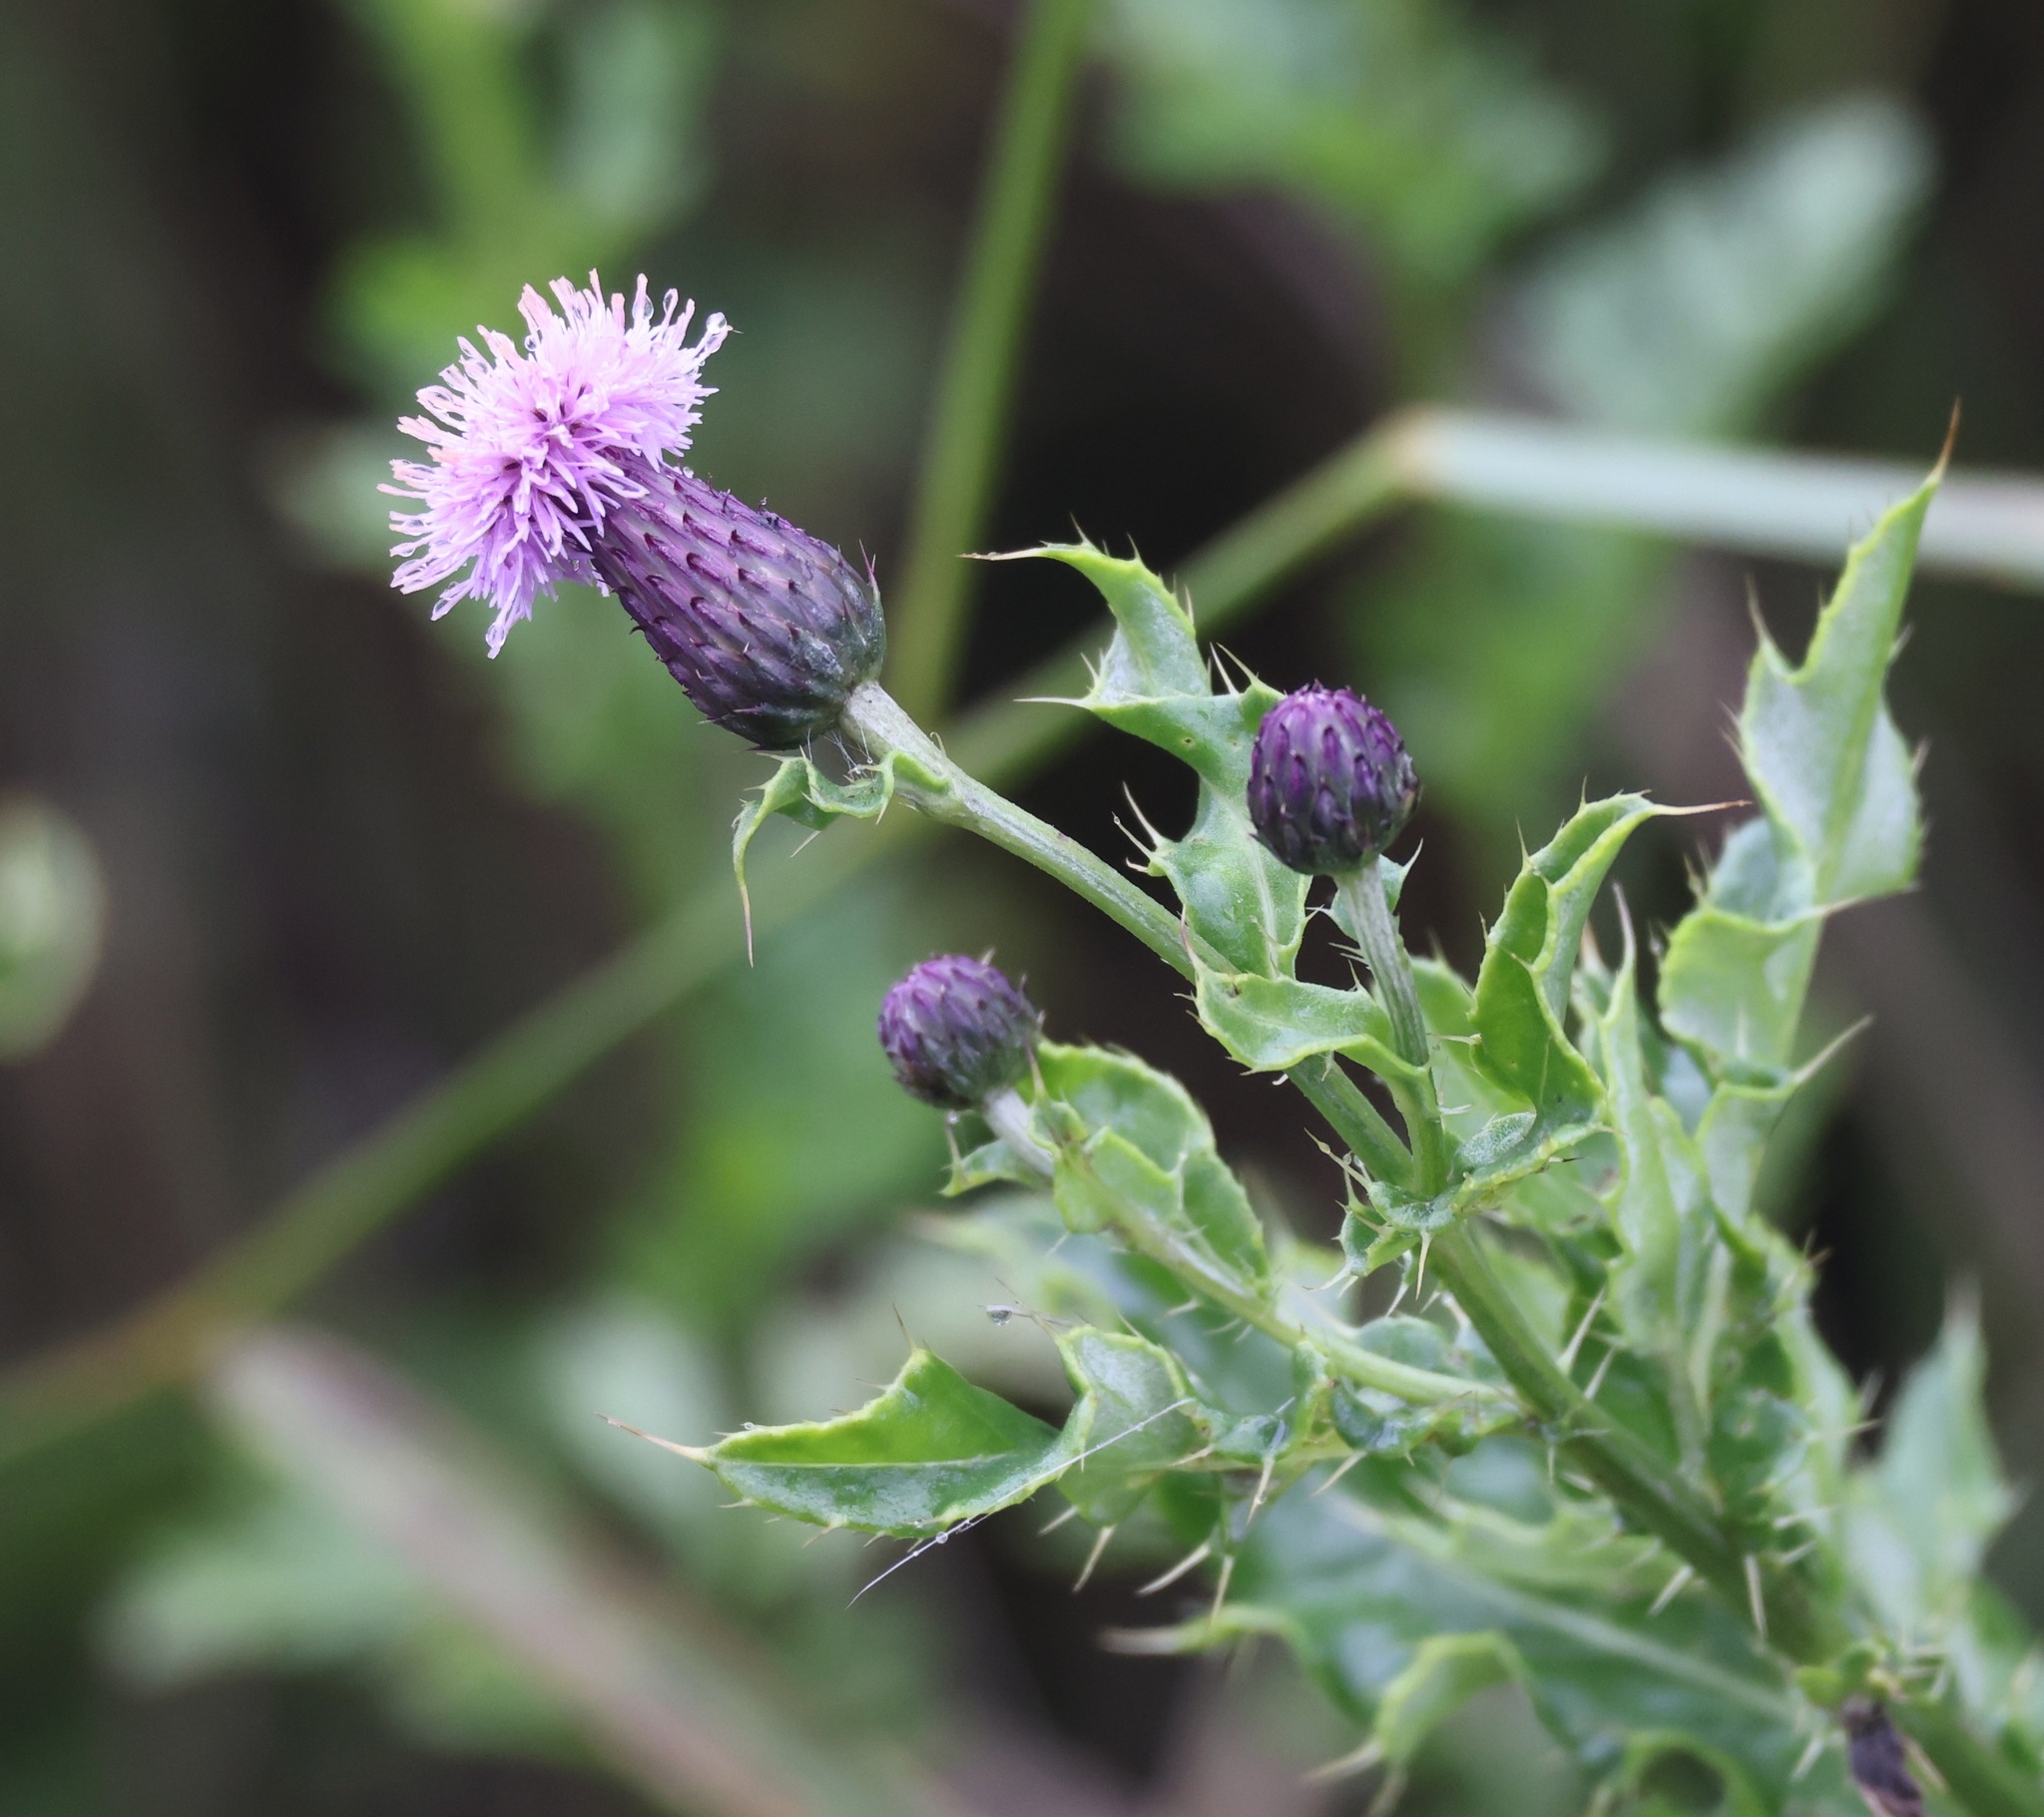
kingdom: Plantae
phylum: Tracheophyta
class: Magnoliopsida
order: Asterales
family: Asteraceae
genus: Cirsium
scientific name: Cirsium arvense
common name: Creeping thistle
